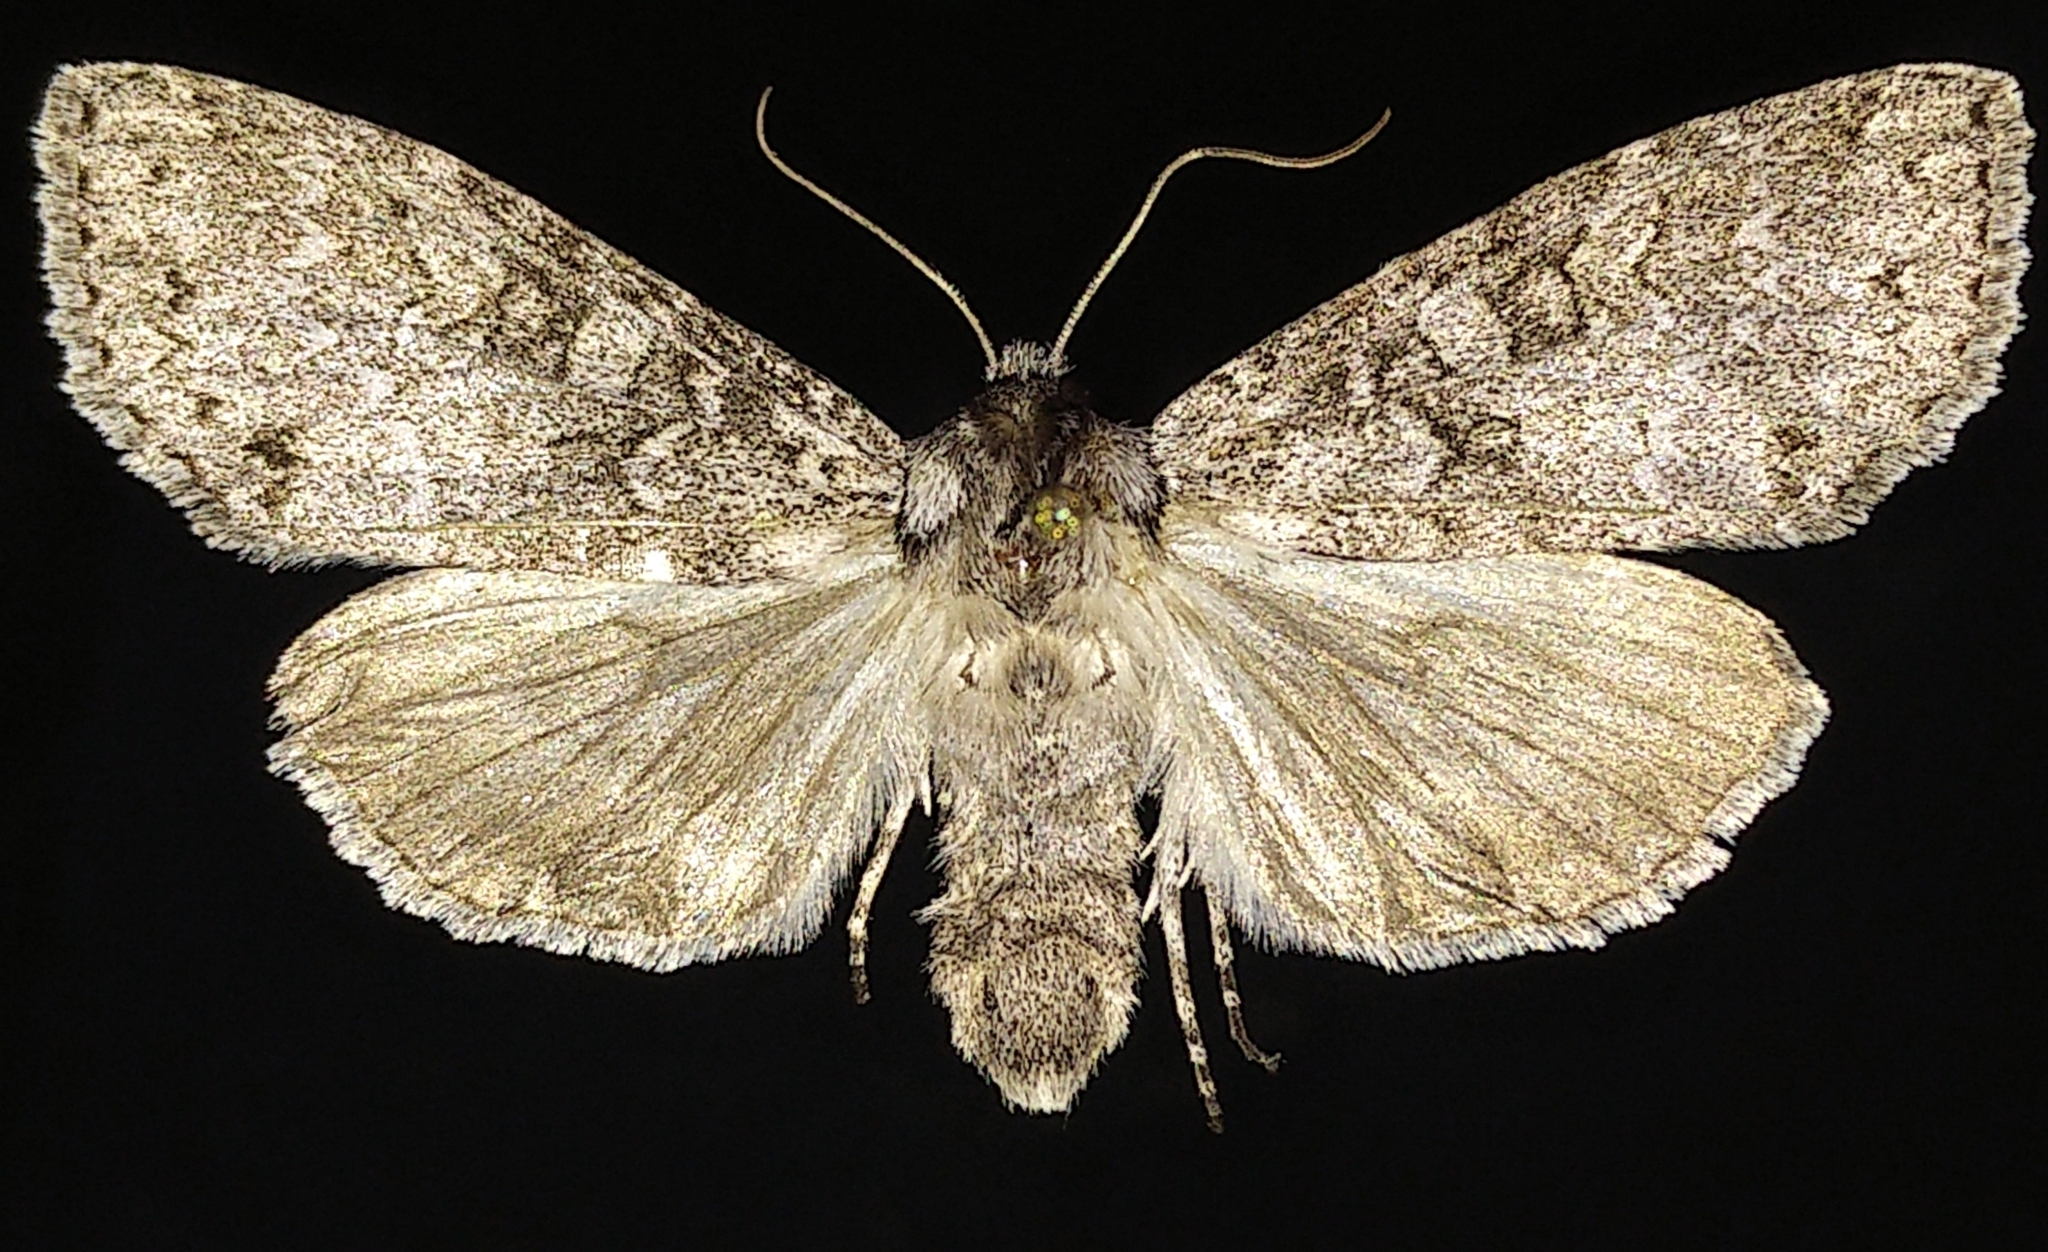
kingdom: Animalia
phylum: Arthropoda
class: Insecta
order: Lepidoptera
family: Noctuidae
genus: Polia
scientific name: Polia nimbosa
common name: Stormy arches
